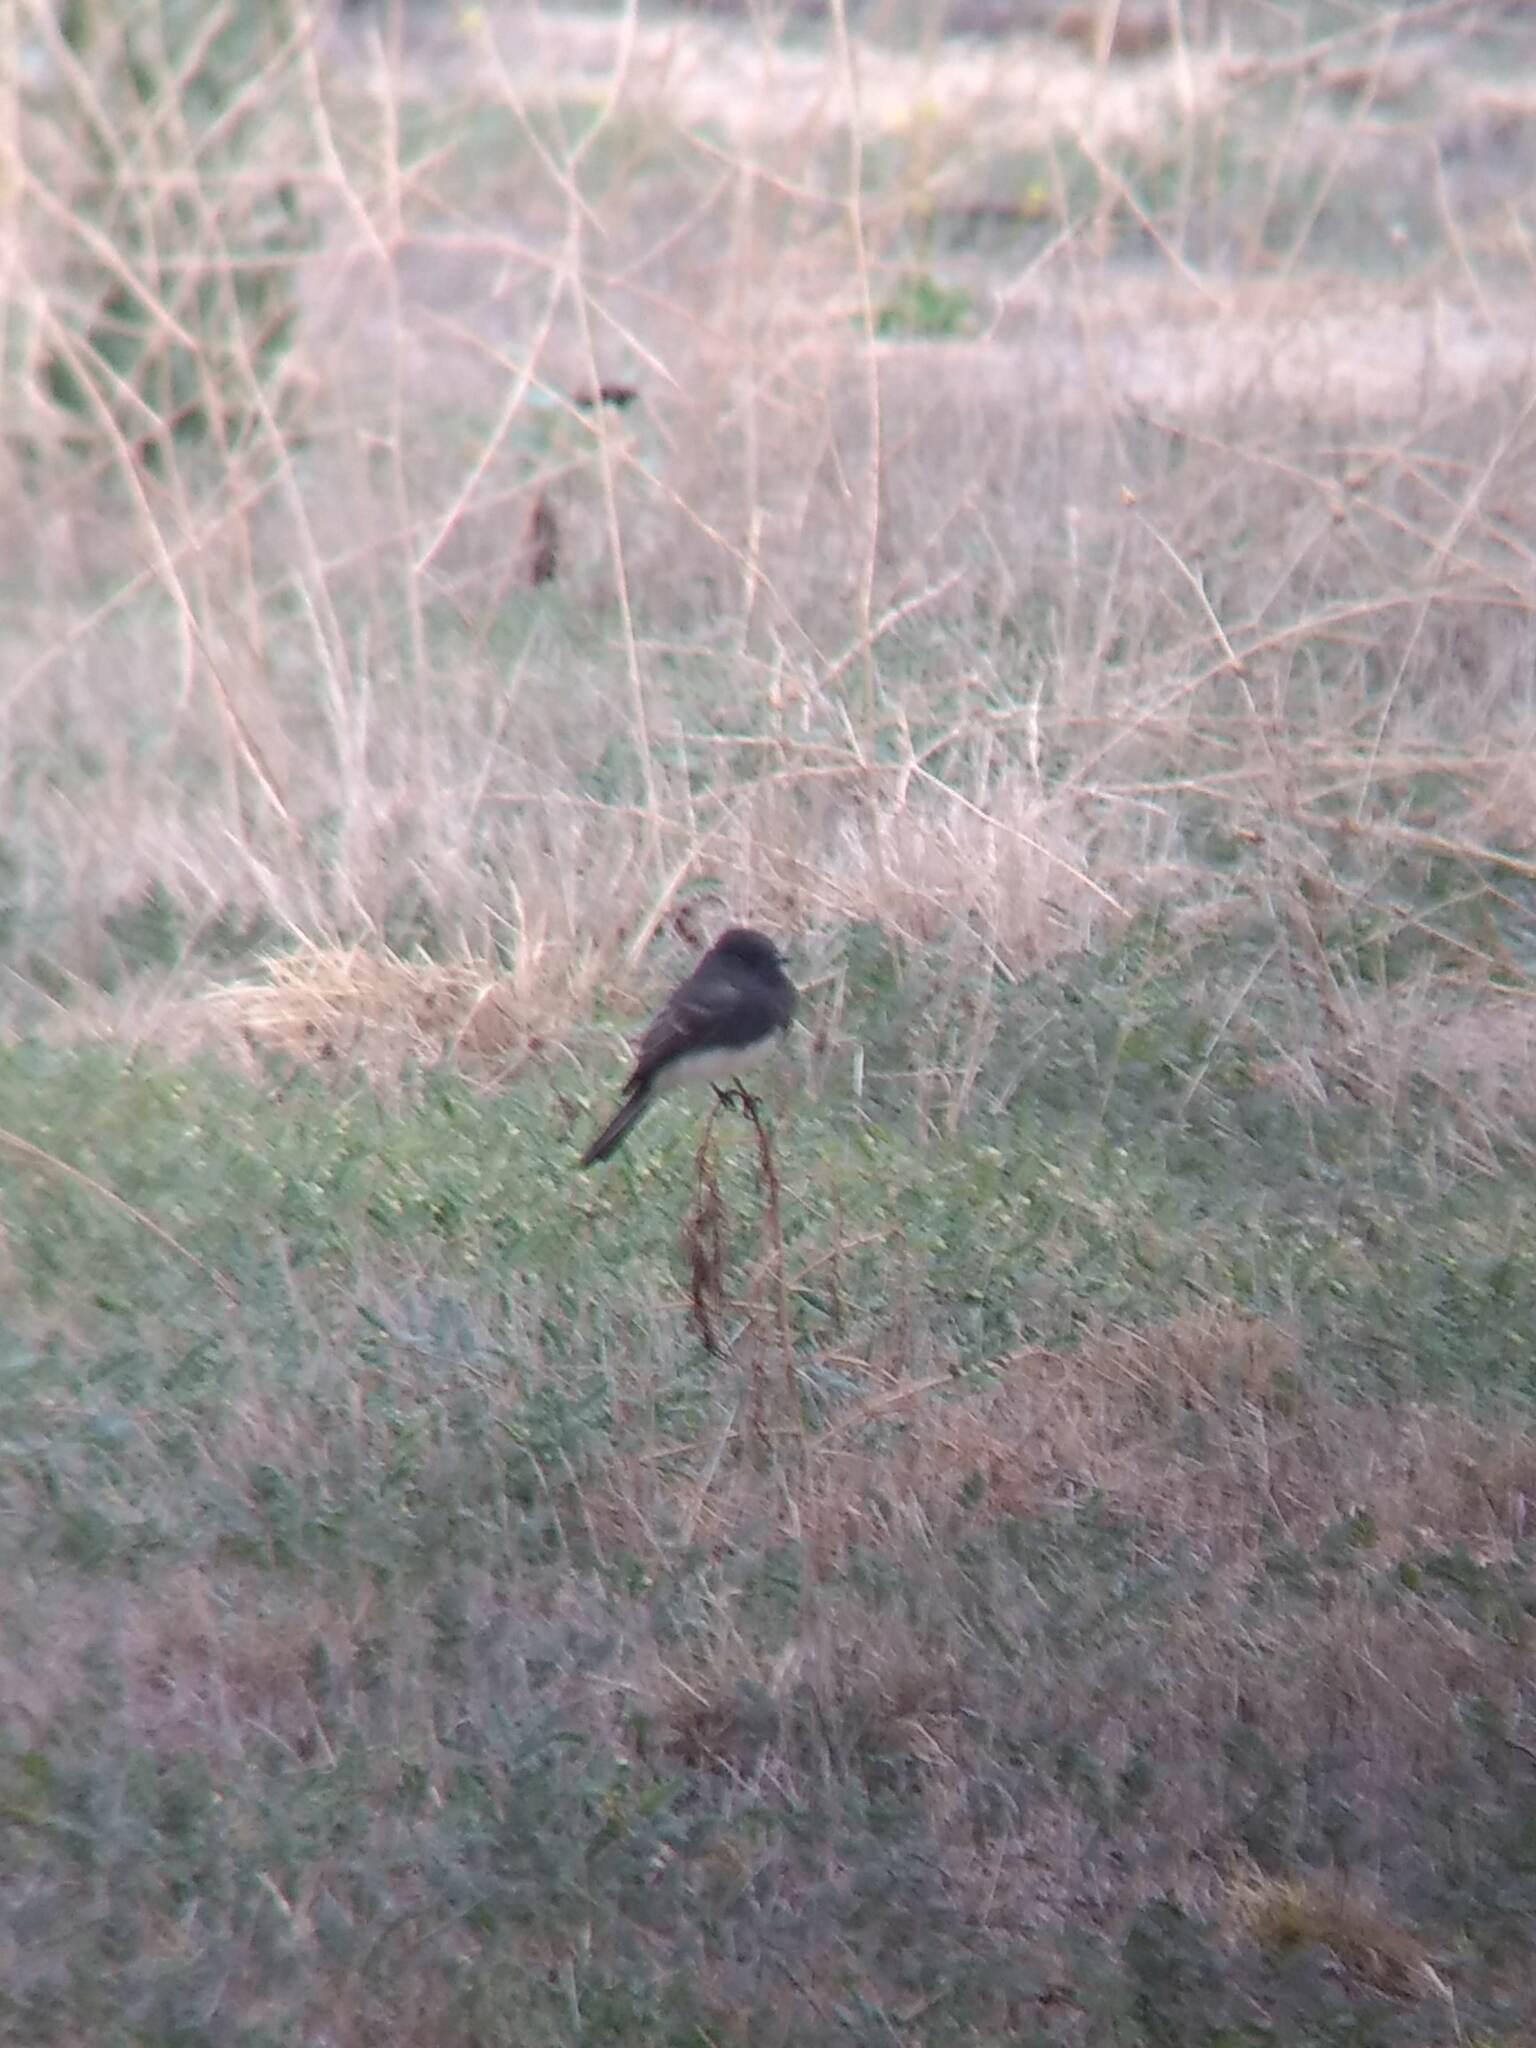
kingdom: Animalia
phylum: Chordata
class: Aves
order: Passeriformes
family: Tyrannidae
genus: Sayornis
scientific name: Sayornis nigricans
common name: Black phoebe
